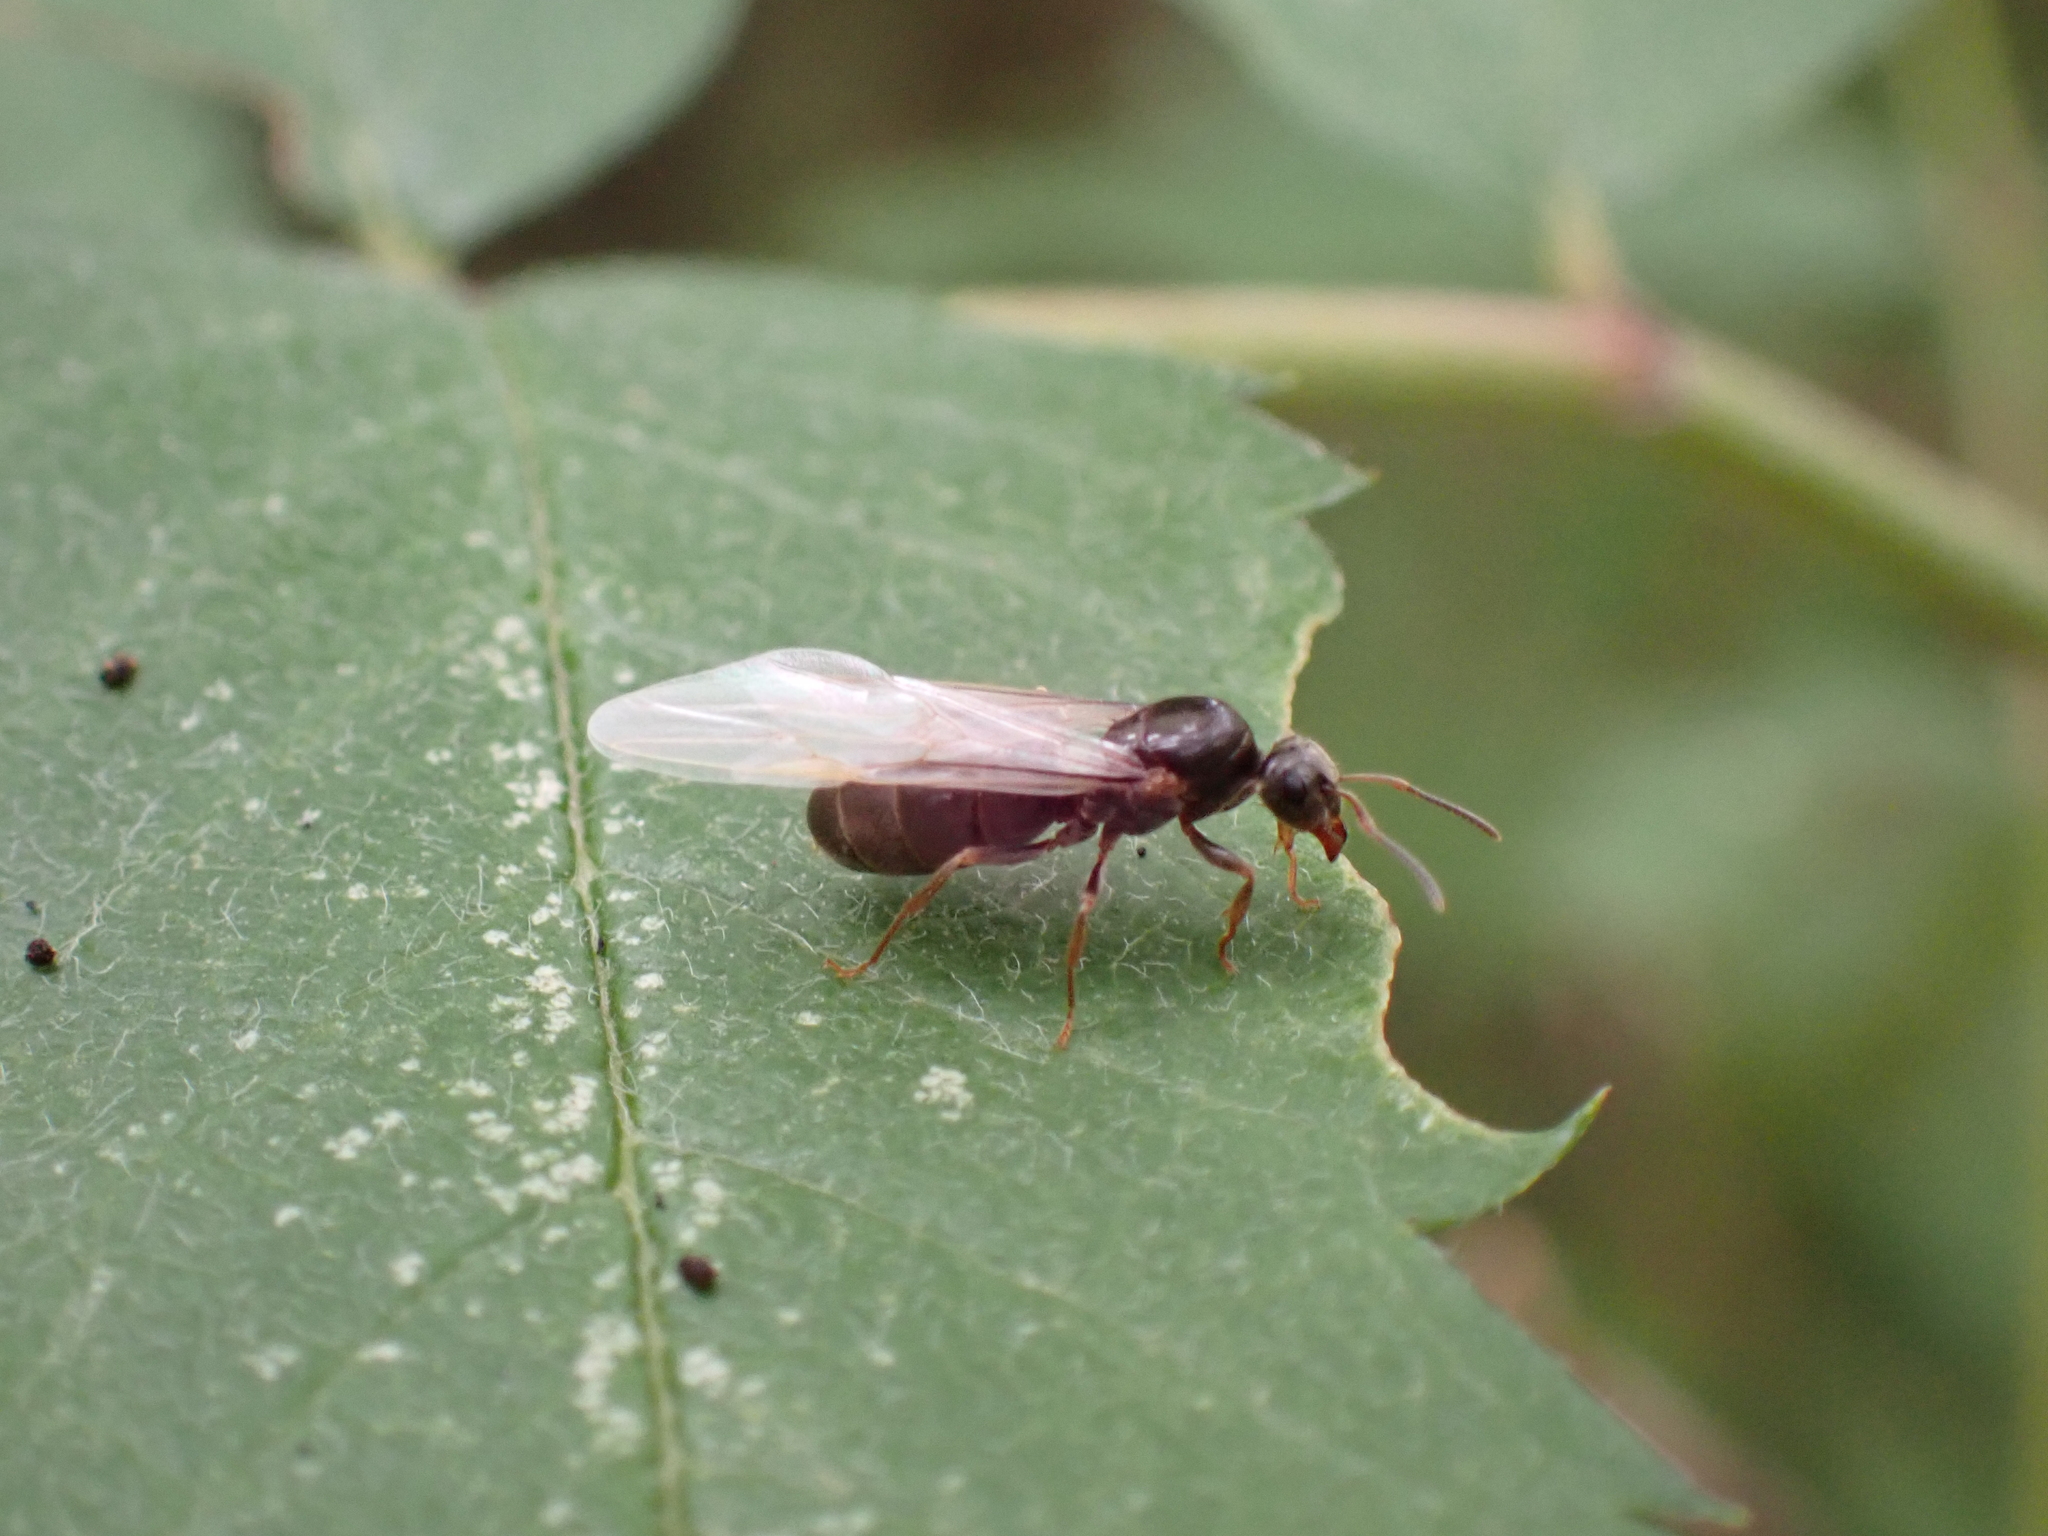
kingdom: Animalia
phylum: Arthropoda
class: Insecta
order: Hymenoptera
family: Formicidae
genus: Lasius
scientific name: Lasius
